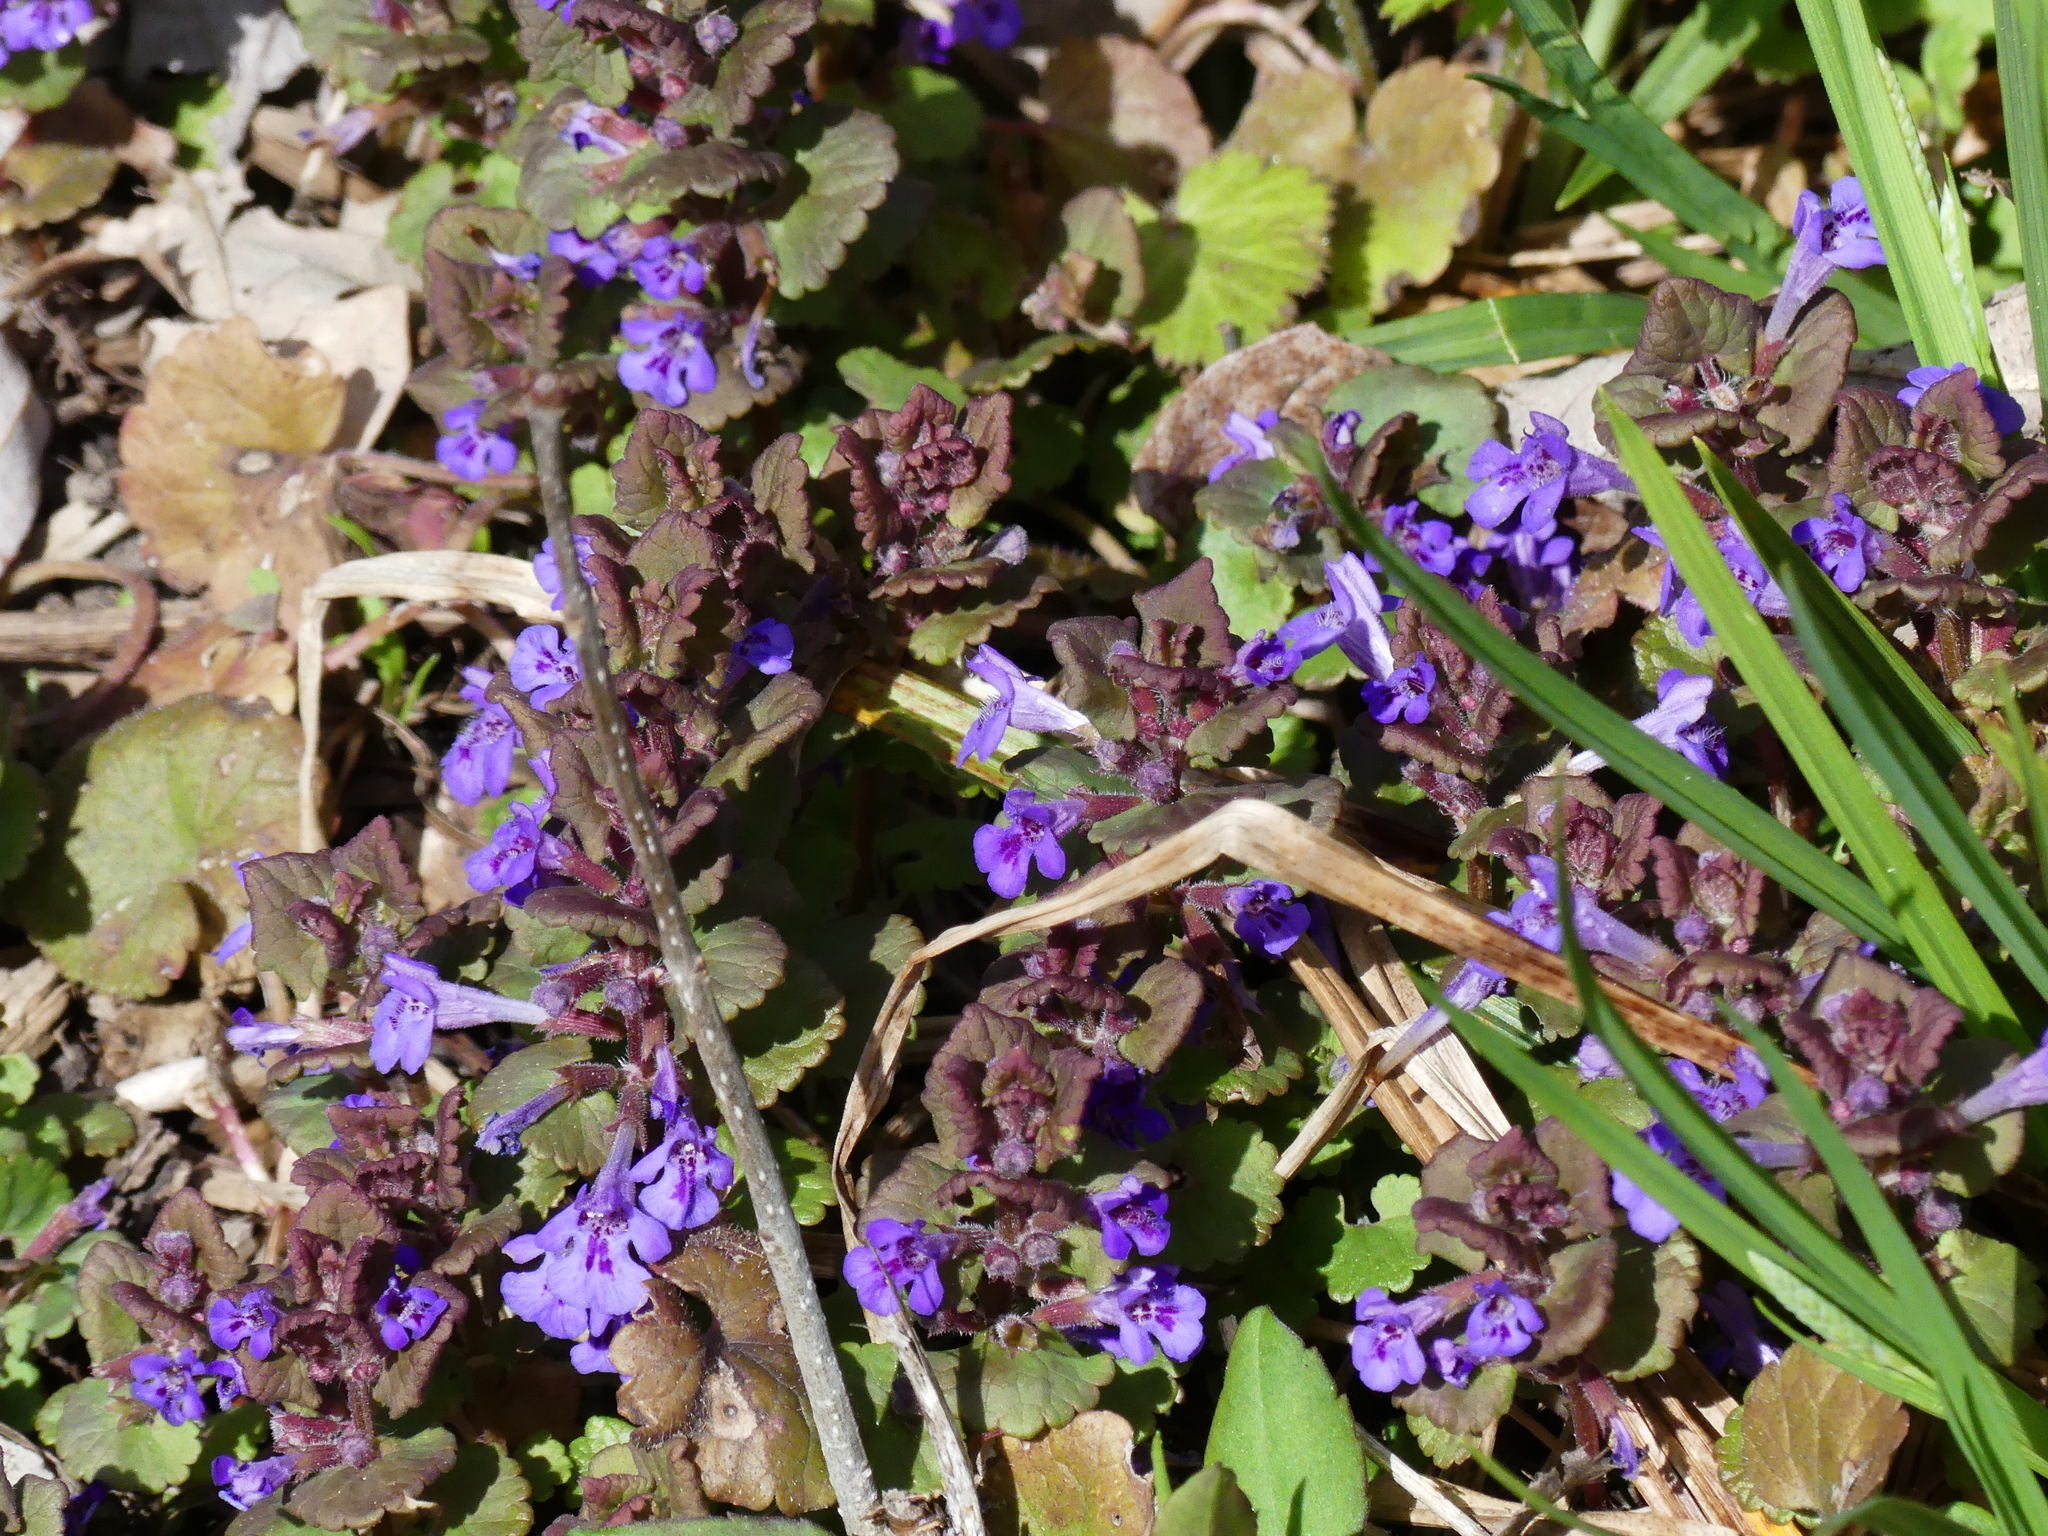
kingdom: Plantae
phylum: Tracheophyta
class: Magnoliopsida
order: Lamiales
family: Lamiaceae
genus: Glechoma
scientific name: Glechoma hederacea
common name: Ground ivy
